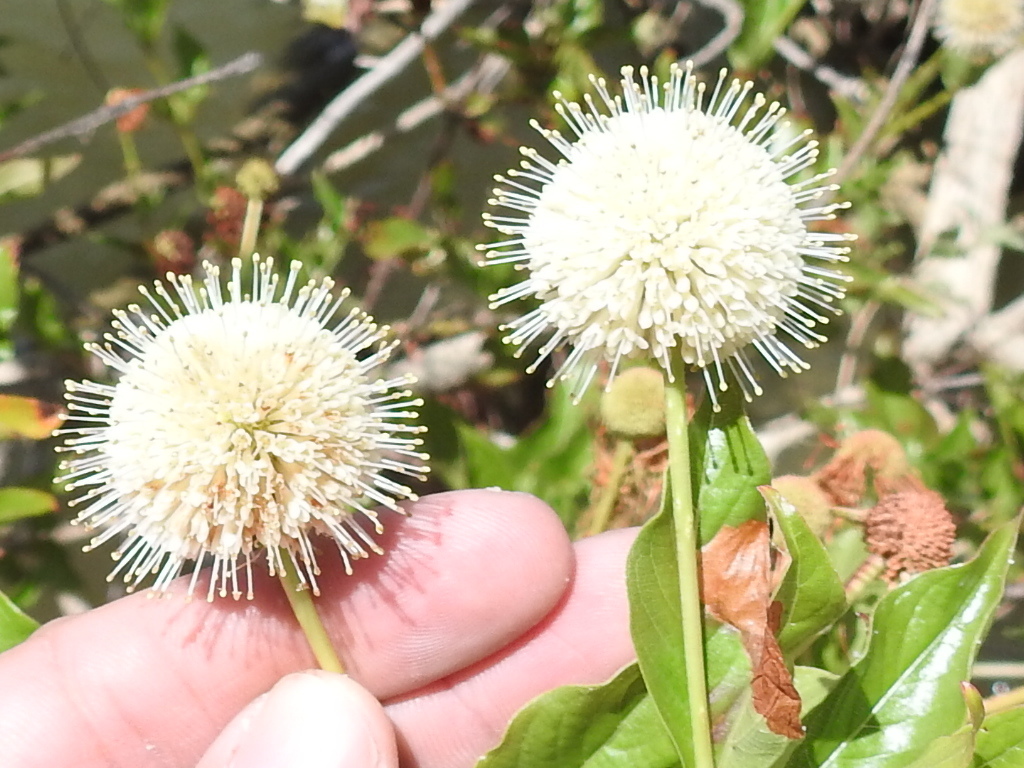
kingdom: Plantae
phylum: Tracheophyta
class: Magnoliopsida
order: Gentianales
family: Rubiaceae
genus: Cephalanthus
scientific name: Cephalanthus occidentalis
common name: Button-willow
